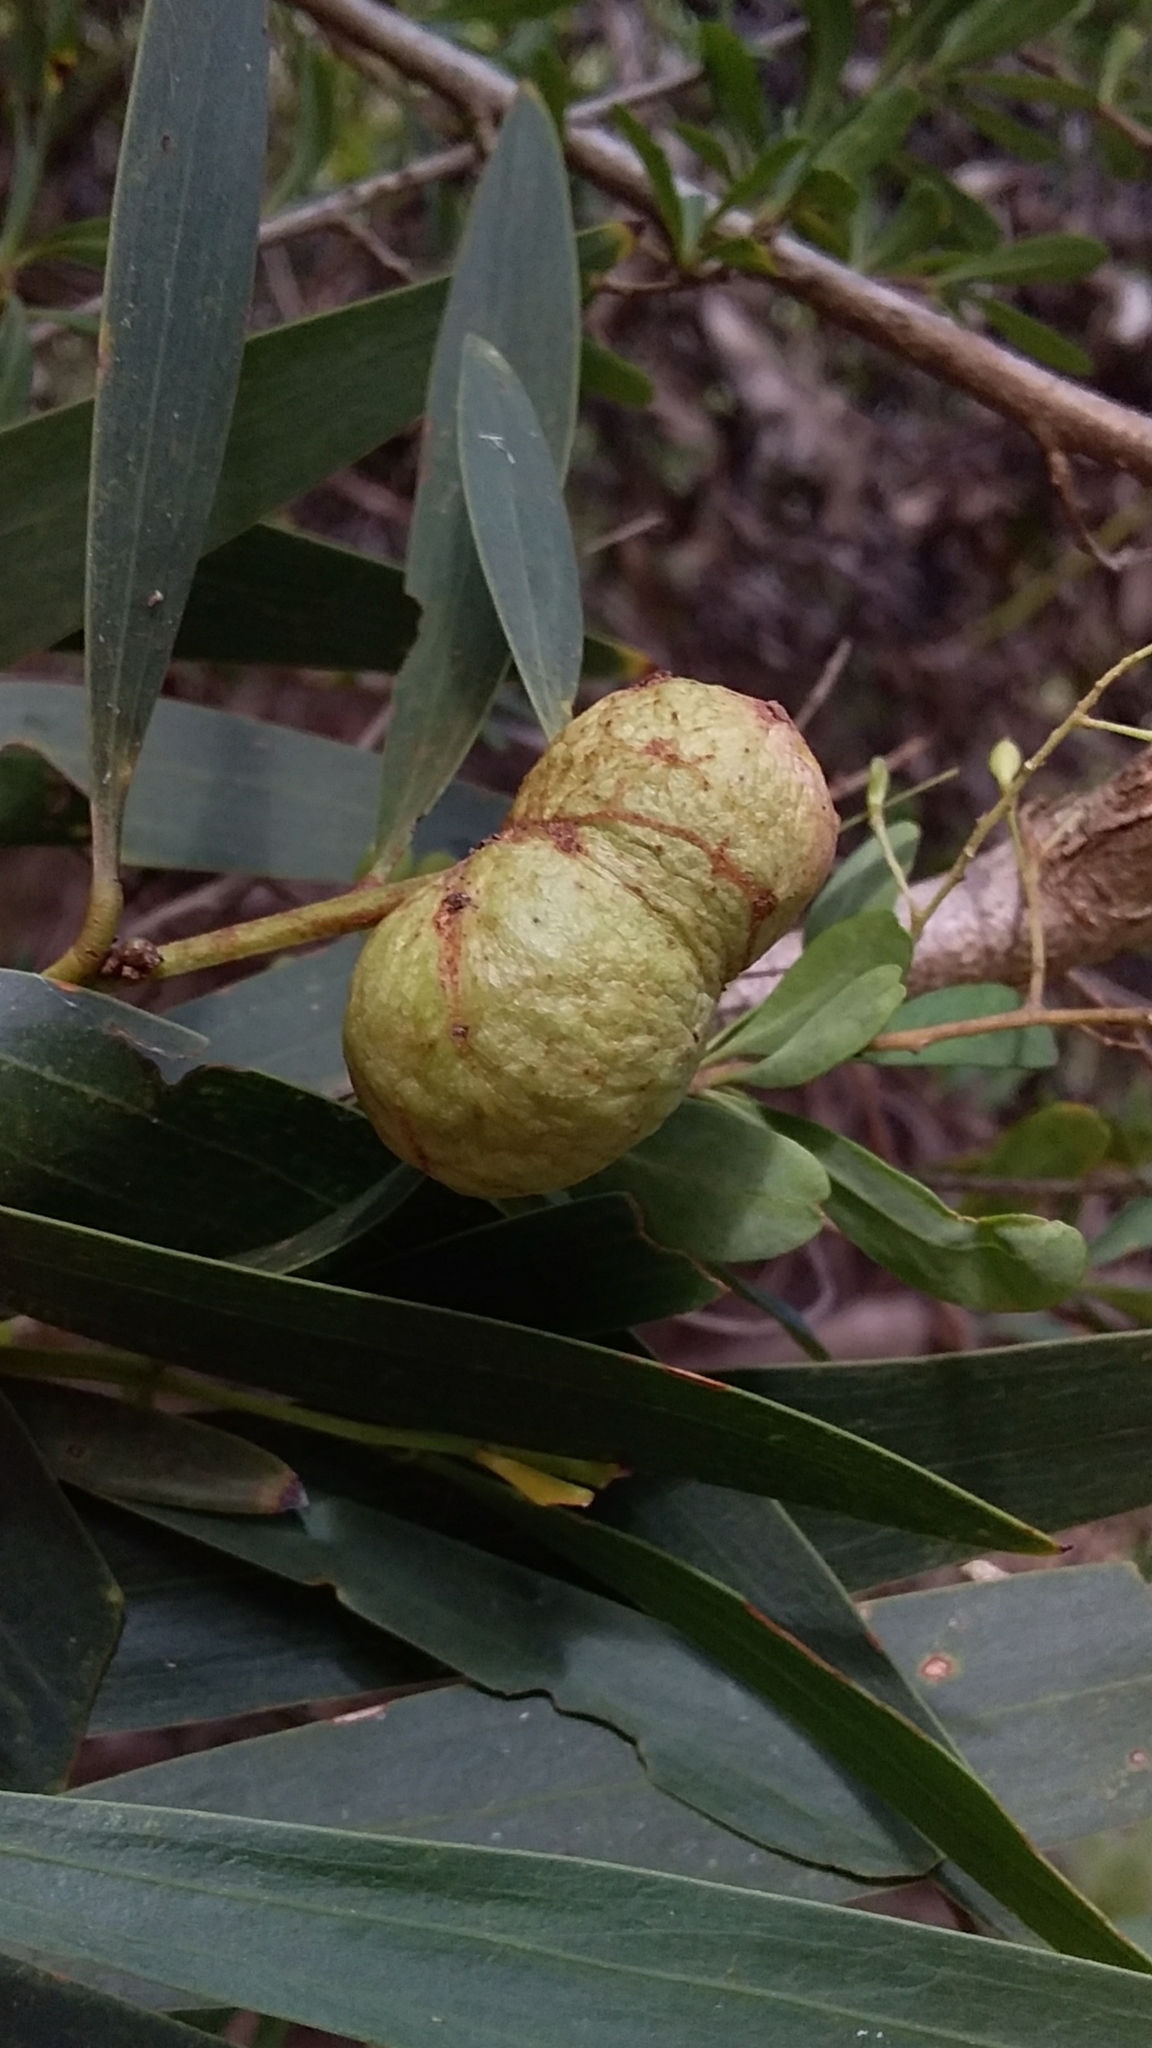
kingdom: Animalia
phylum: Arthropoda
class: Insecta
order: Hymenoptera
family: Pteromalidae
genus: Trichilogaster
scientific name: Trichilogaster acaciaelongifoliae
